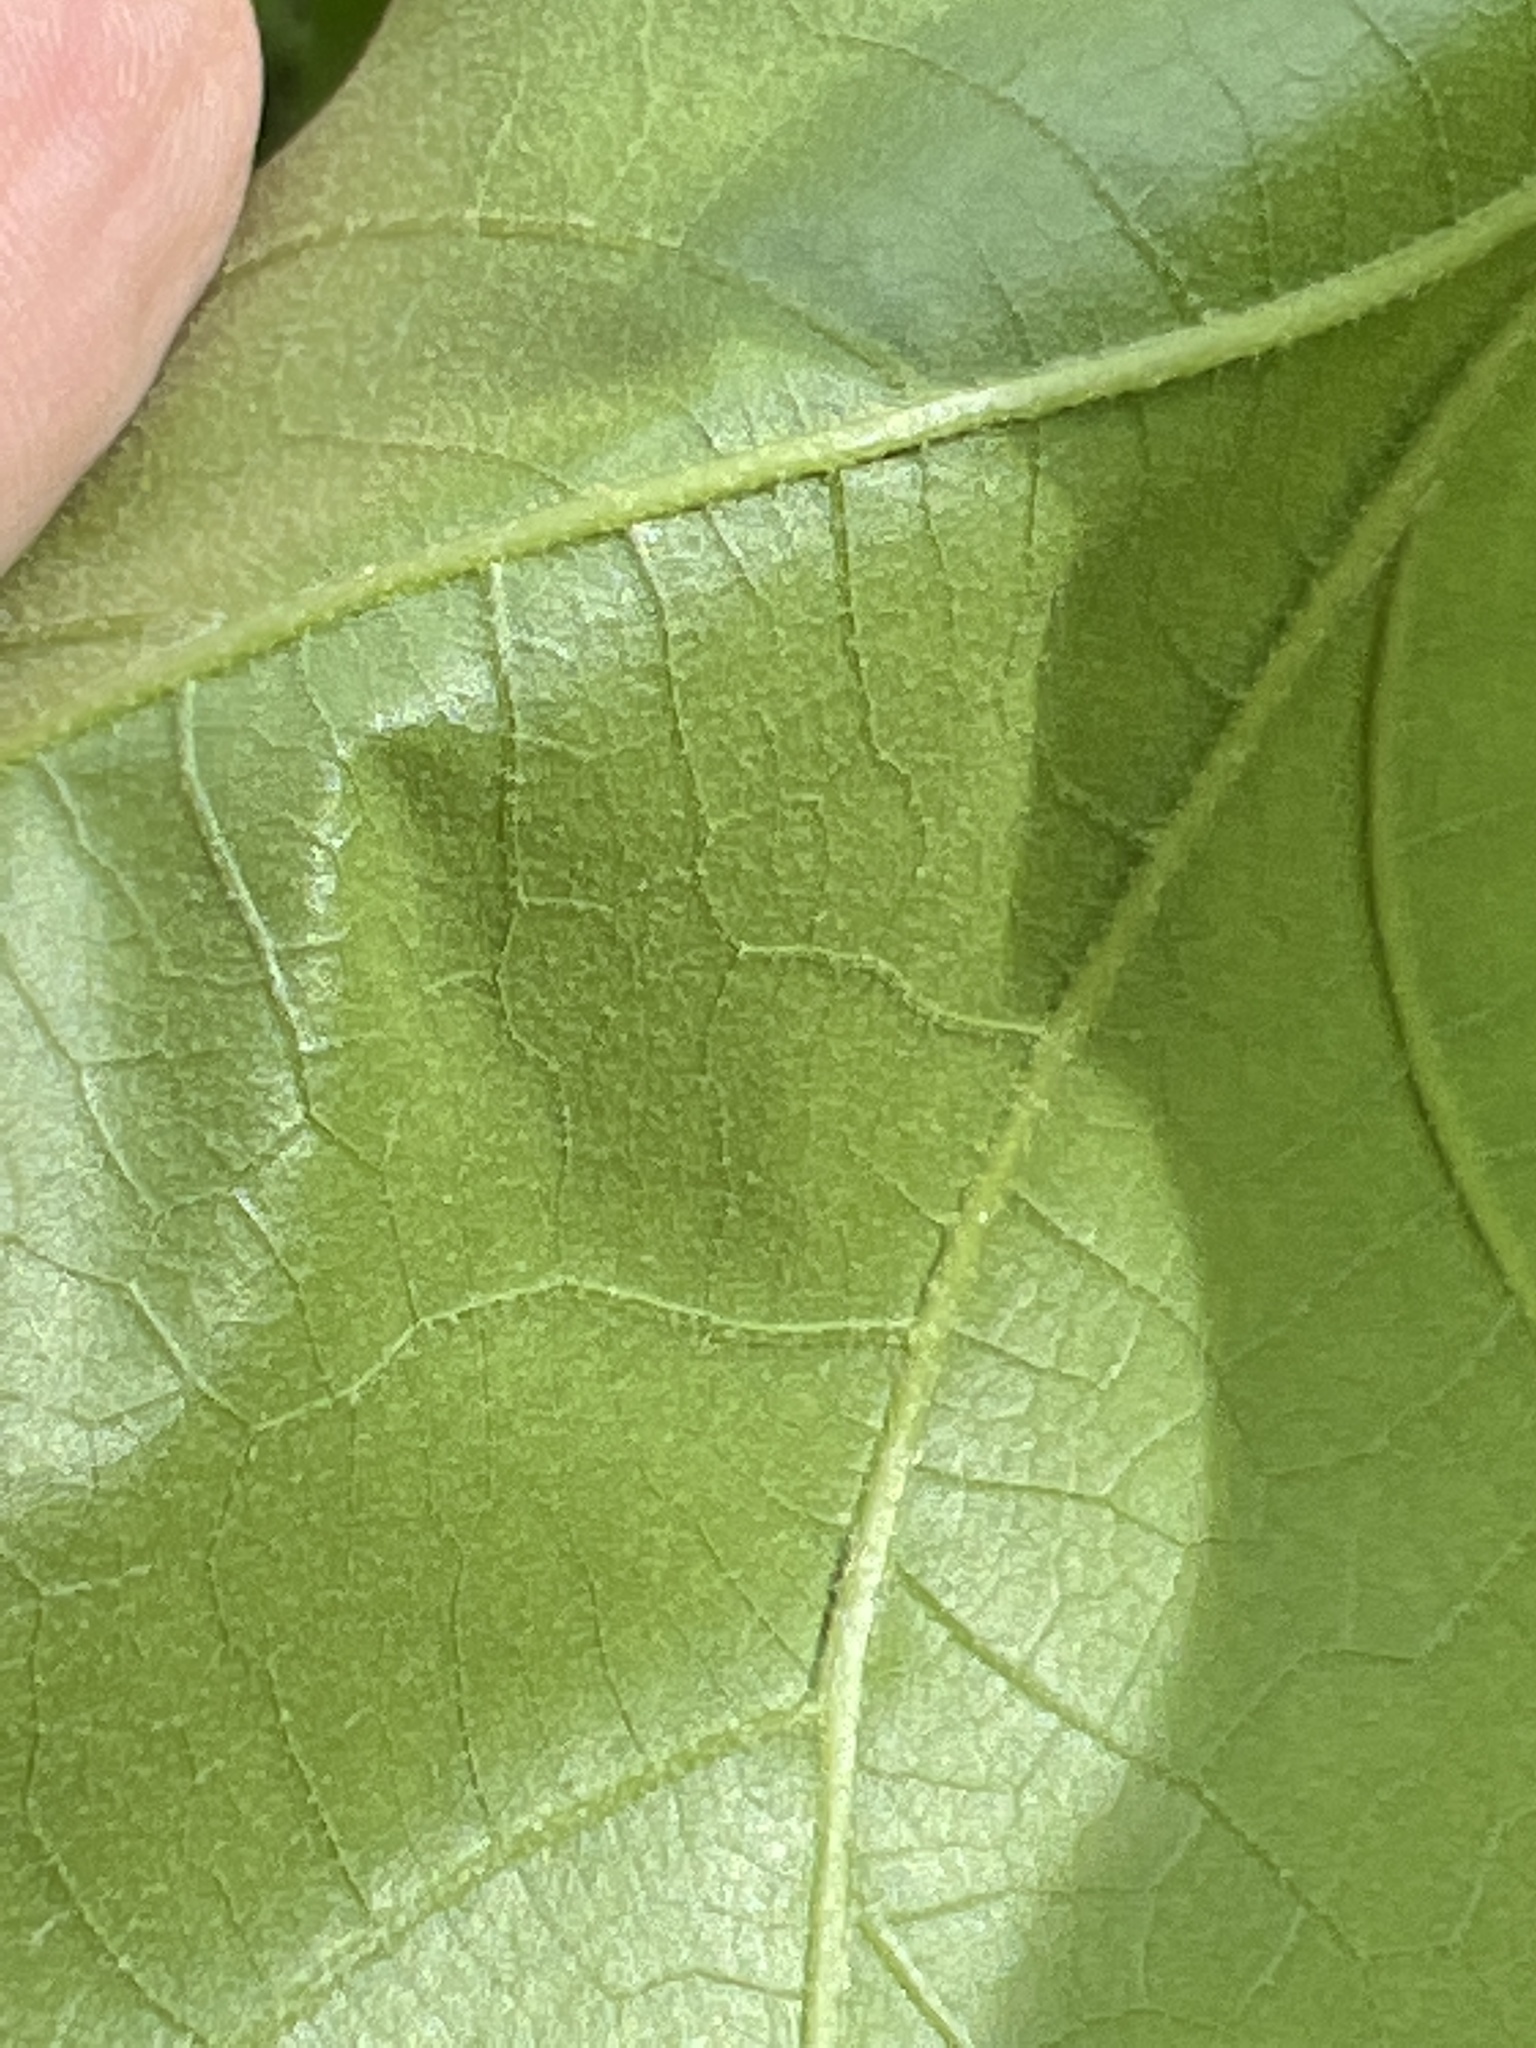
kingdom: Plantae
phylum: Tracheophyta
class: Magnoliopsida
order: Fagales
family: Fagaceae
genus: Quercus
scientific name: Quercus velutina
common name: Black oak
